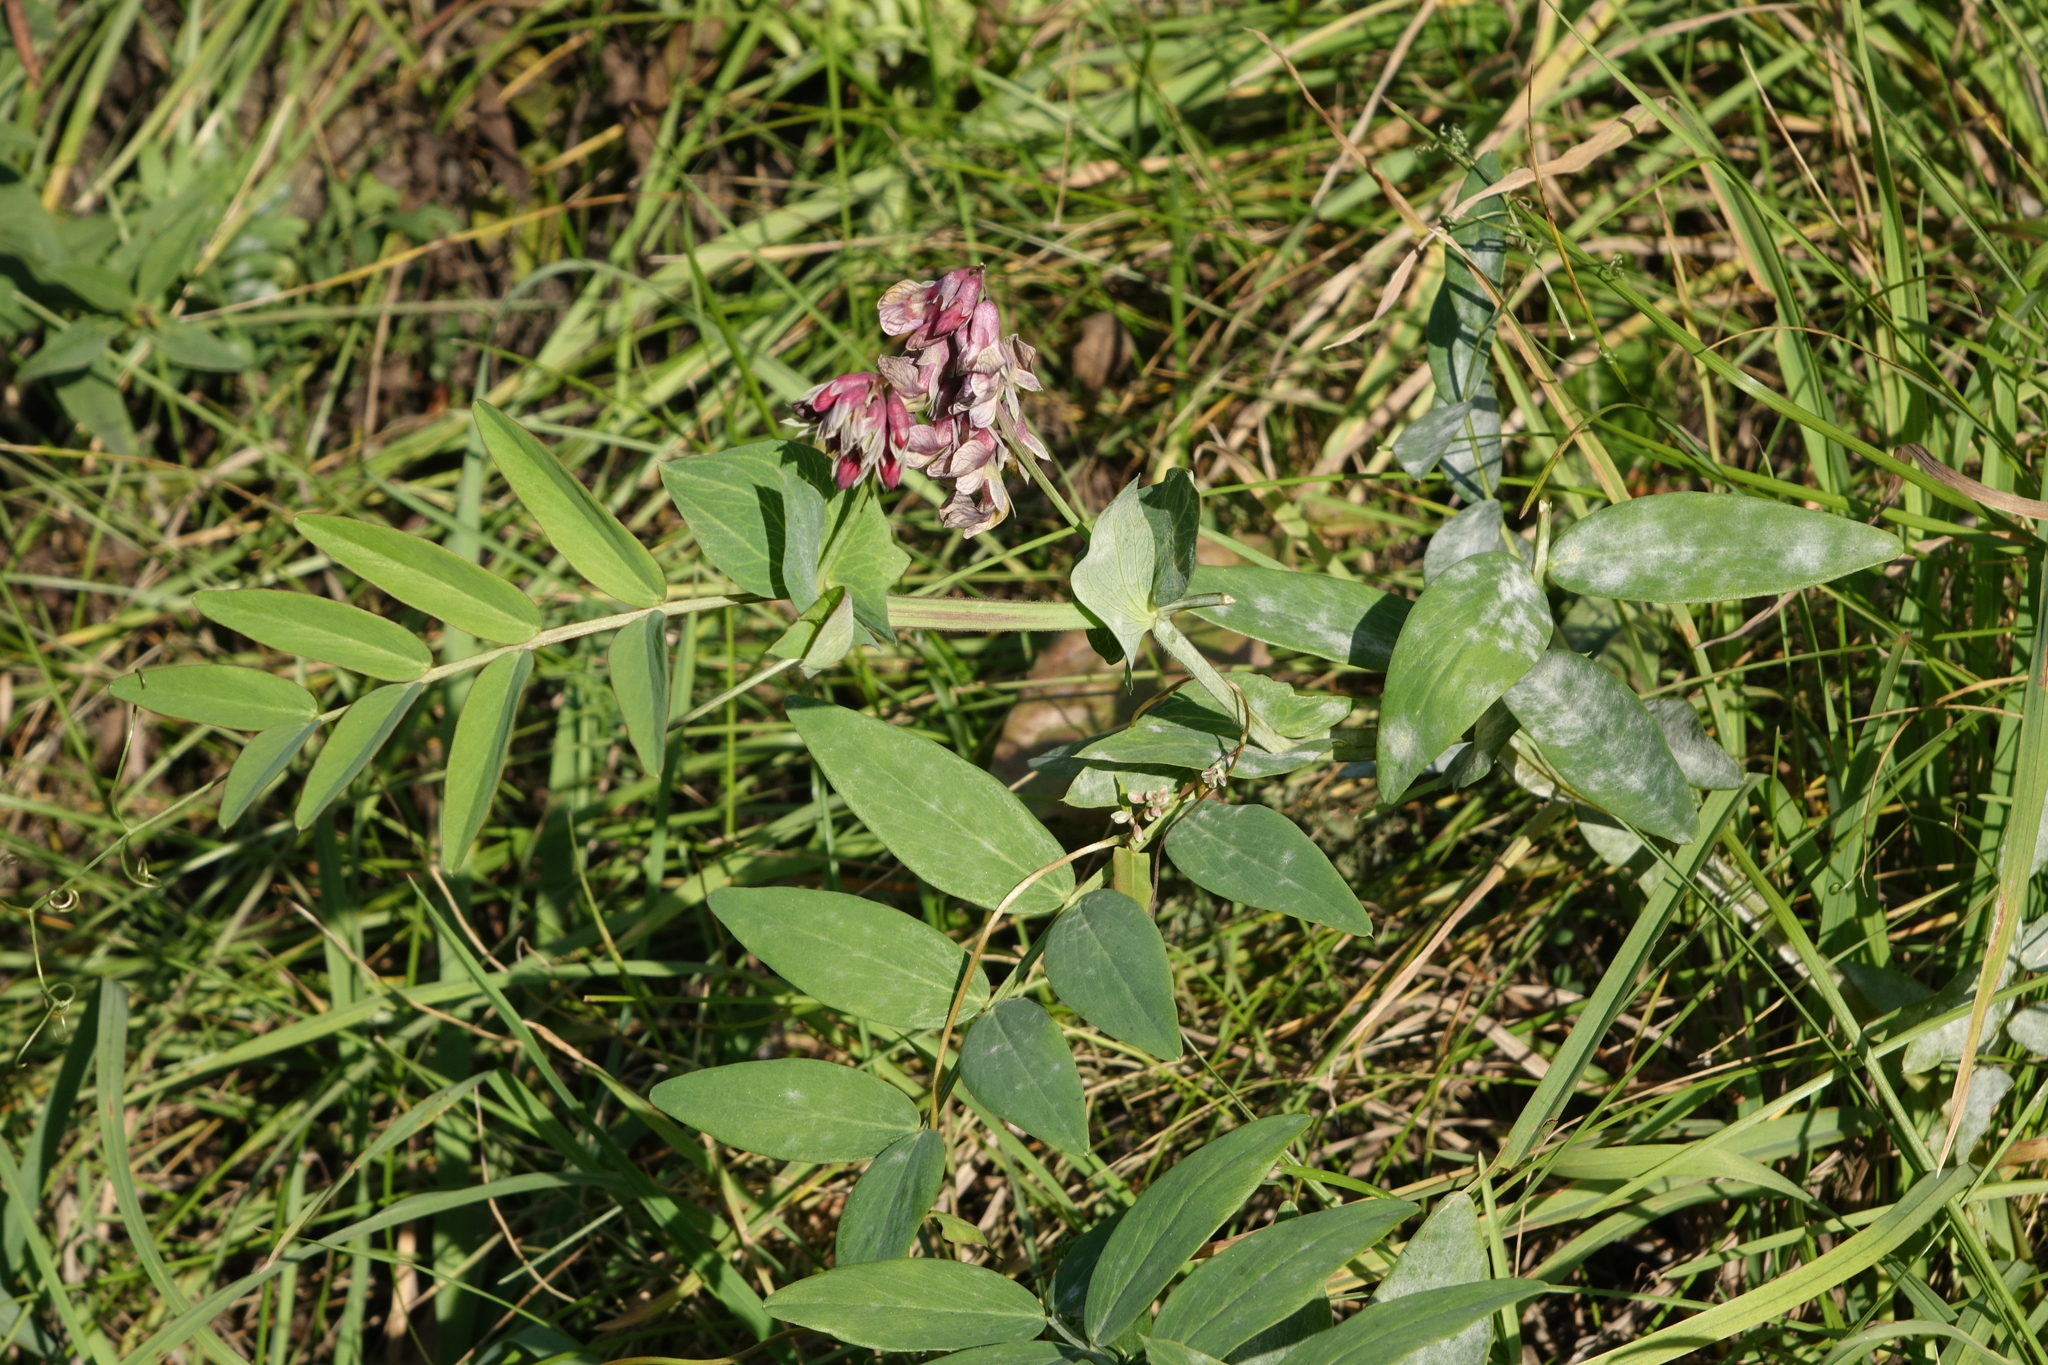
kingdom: Plantae
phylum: Tracheophyta
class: Magnoliopsida
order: Fabales
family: Fabaceae
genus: Lathyrus
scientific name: Lathyrus pisiformis
